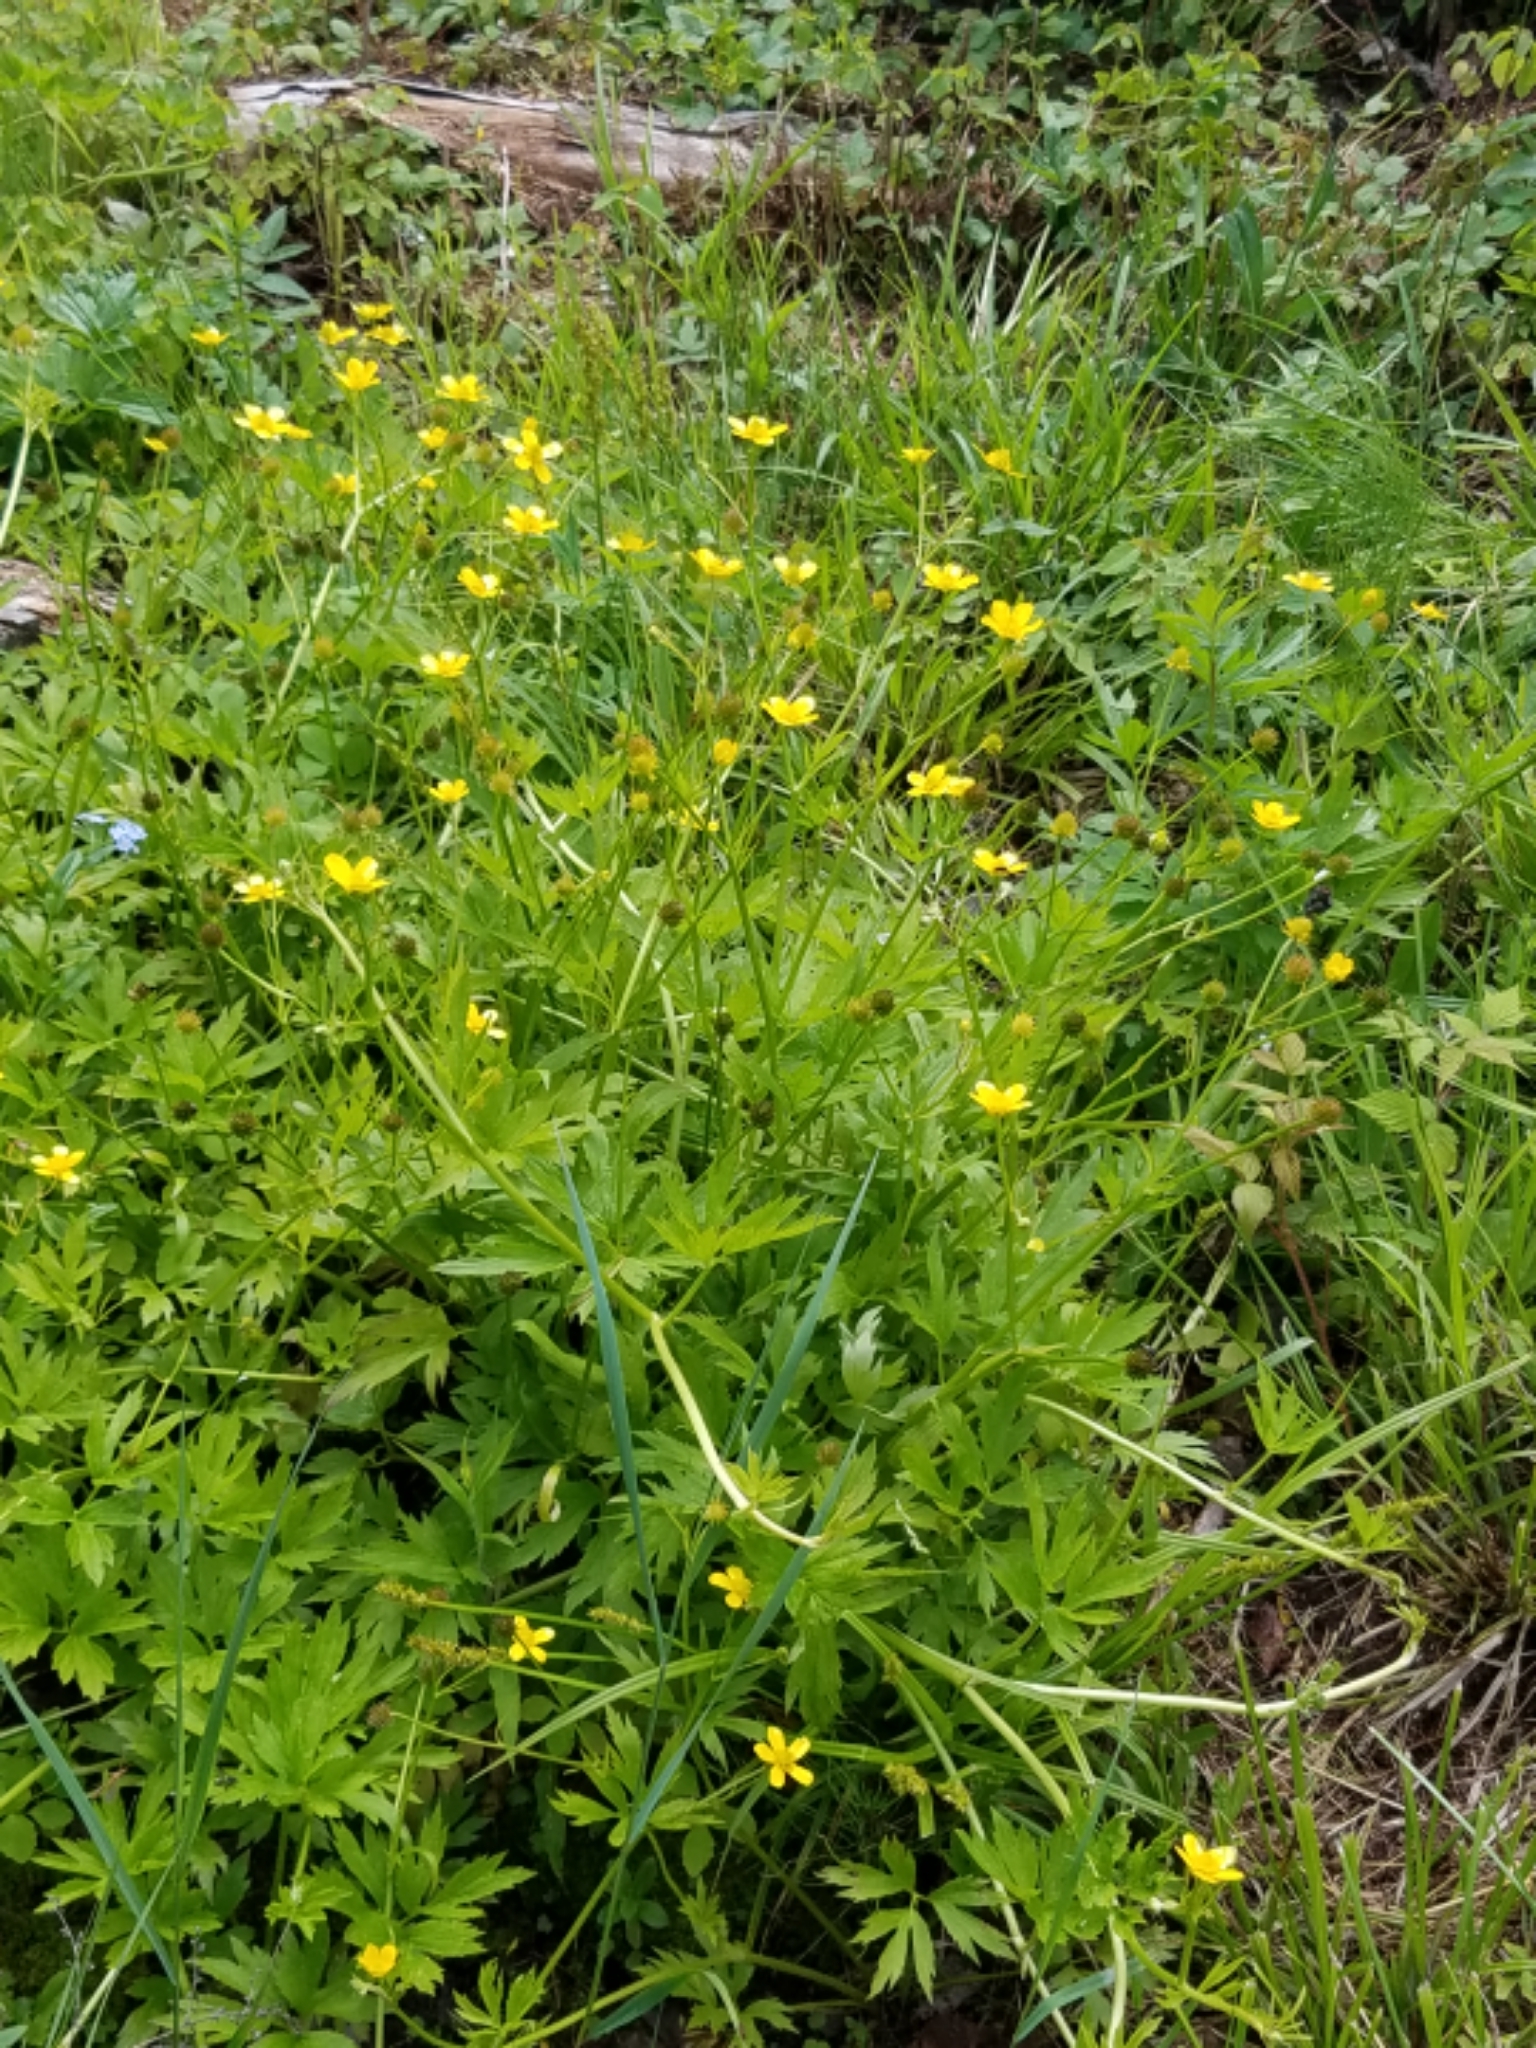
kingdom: Plantae
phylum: Tracheophyta
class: Magnoliopsida
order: Ranunculales
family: Ranunculaceae
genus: Ranunculus
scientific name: Ranunculus hispidus
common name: Bristly buttercup
